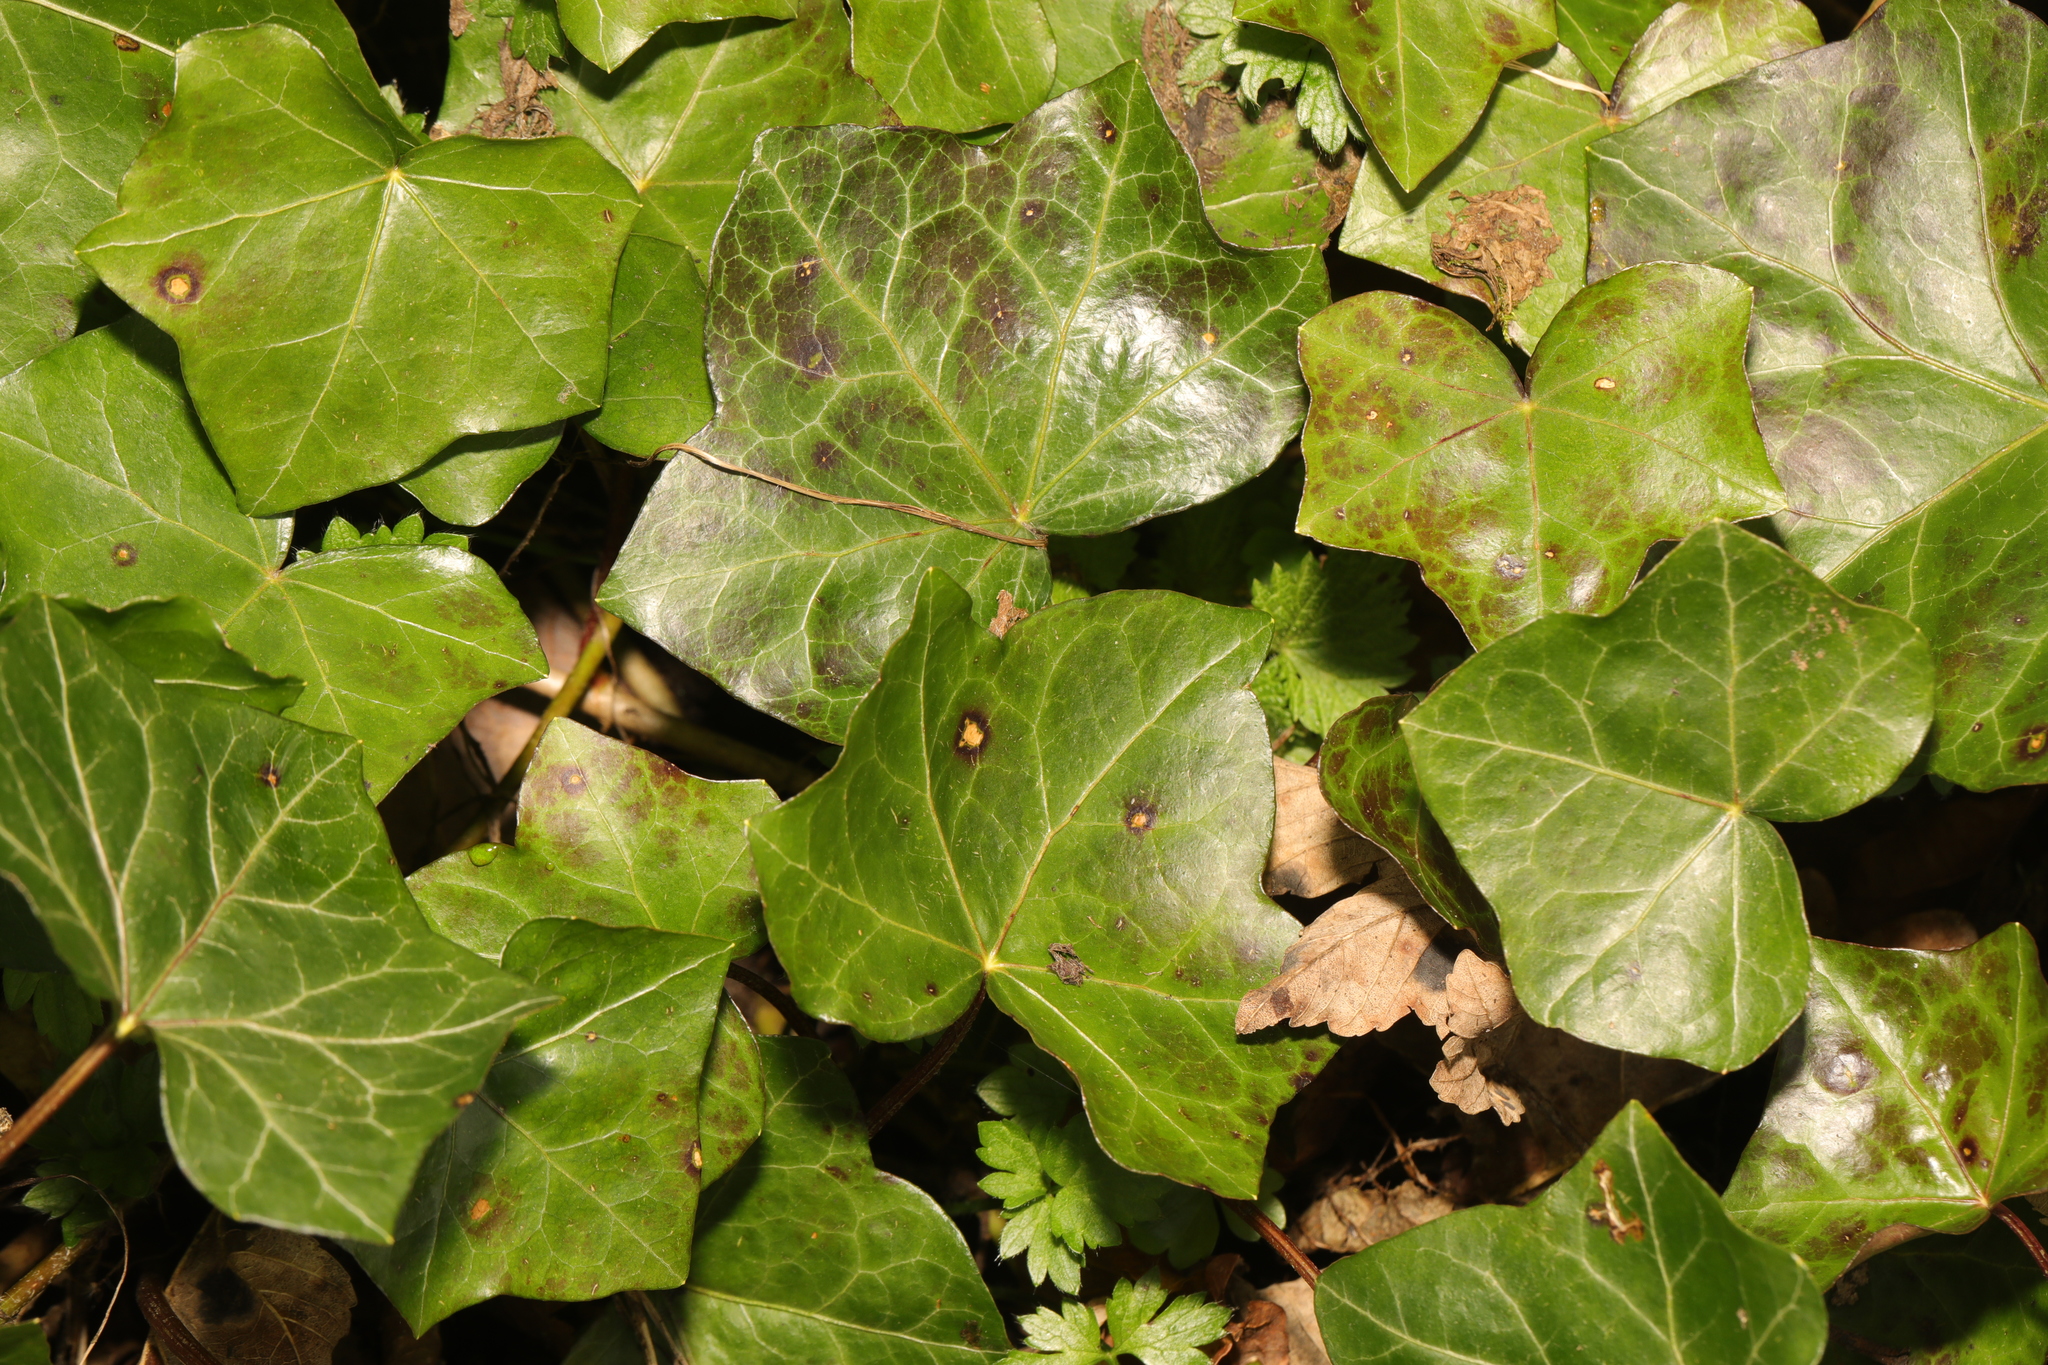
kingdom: Plantae
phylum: Tracheophyta
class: Magnoliopsida
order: Apiales
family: Araliaceae
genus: Hedera
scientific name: Hedera helix
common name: Ivy
